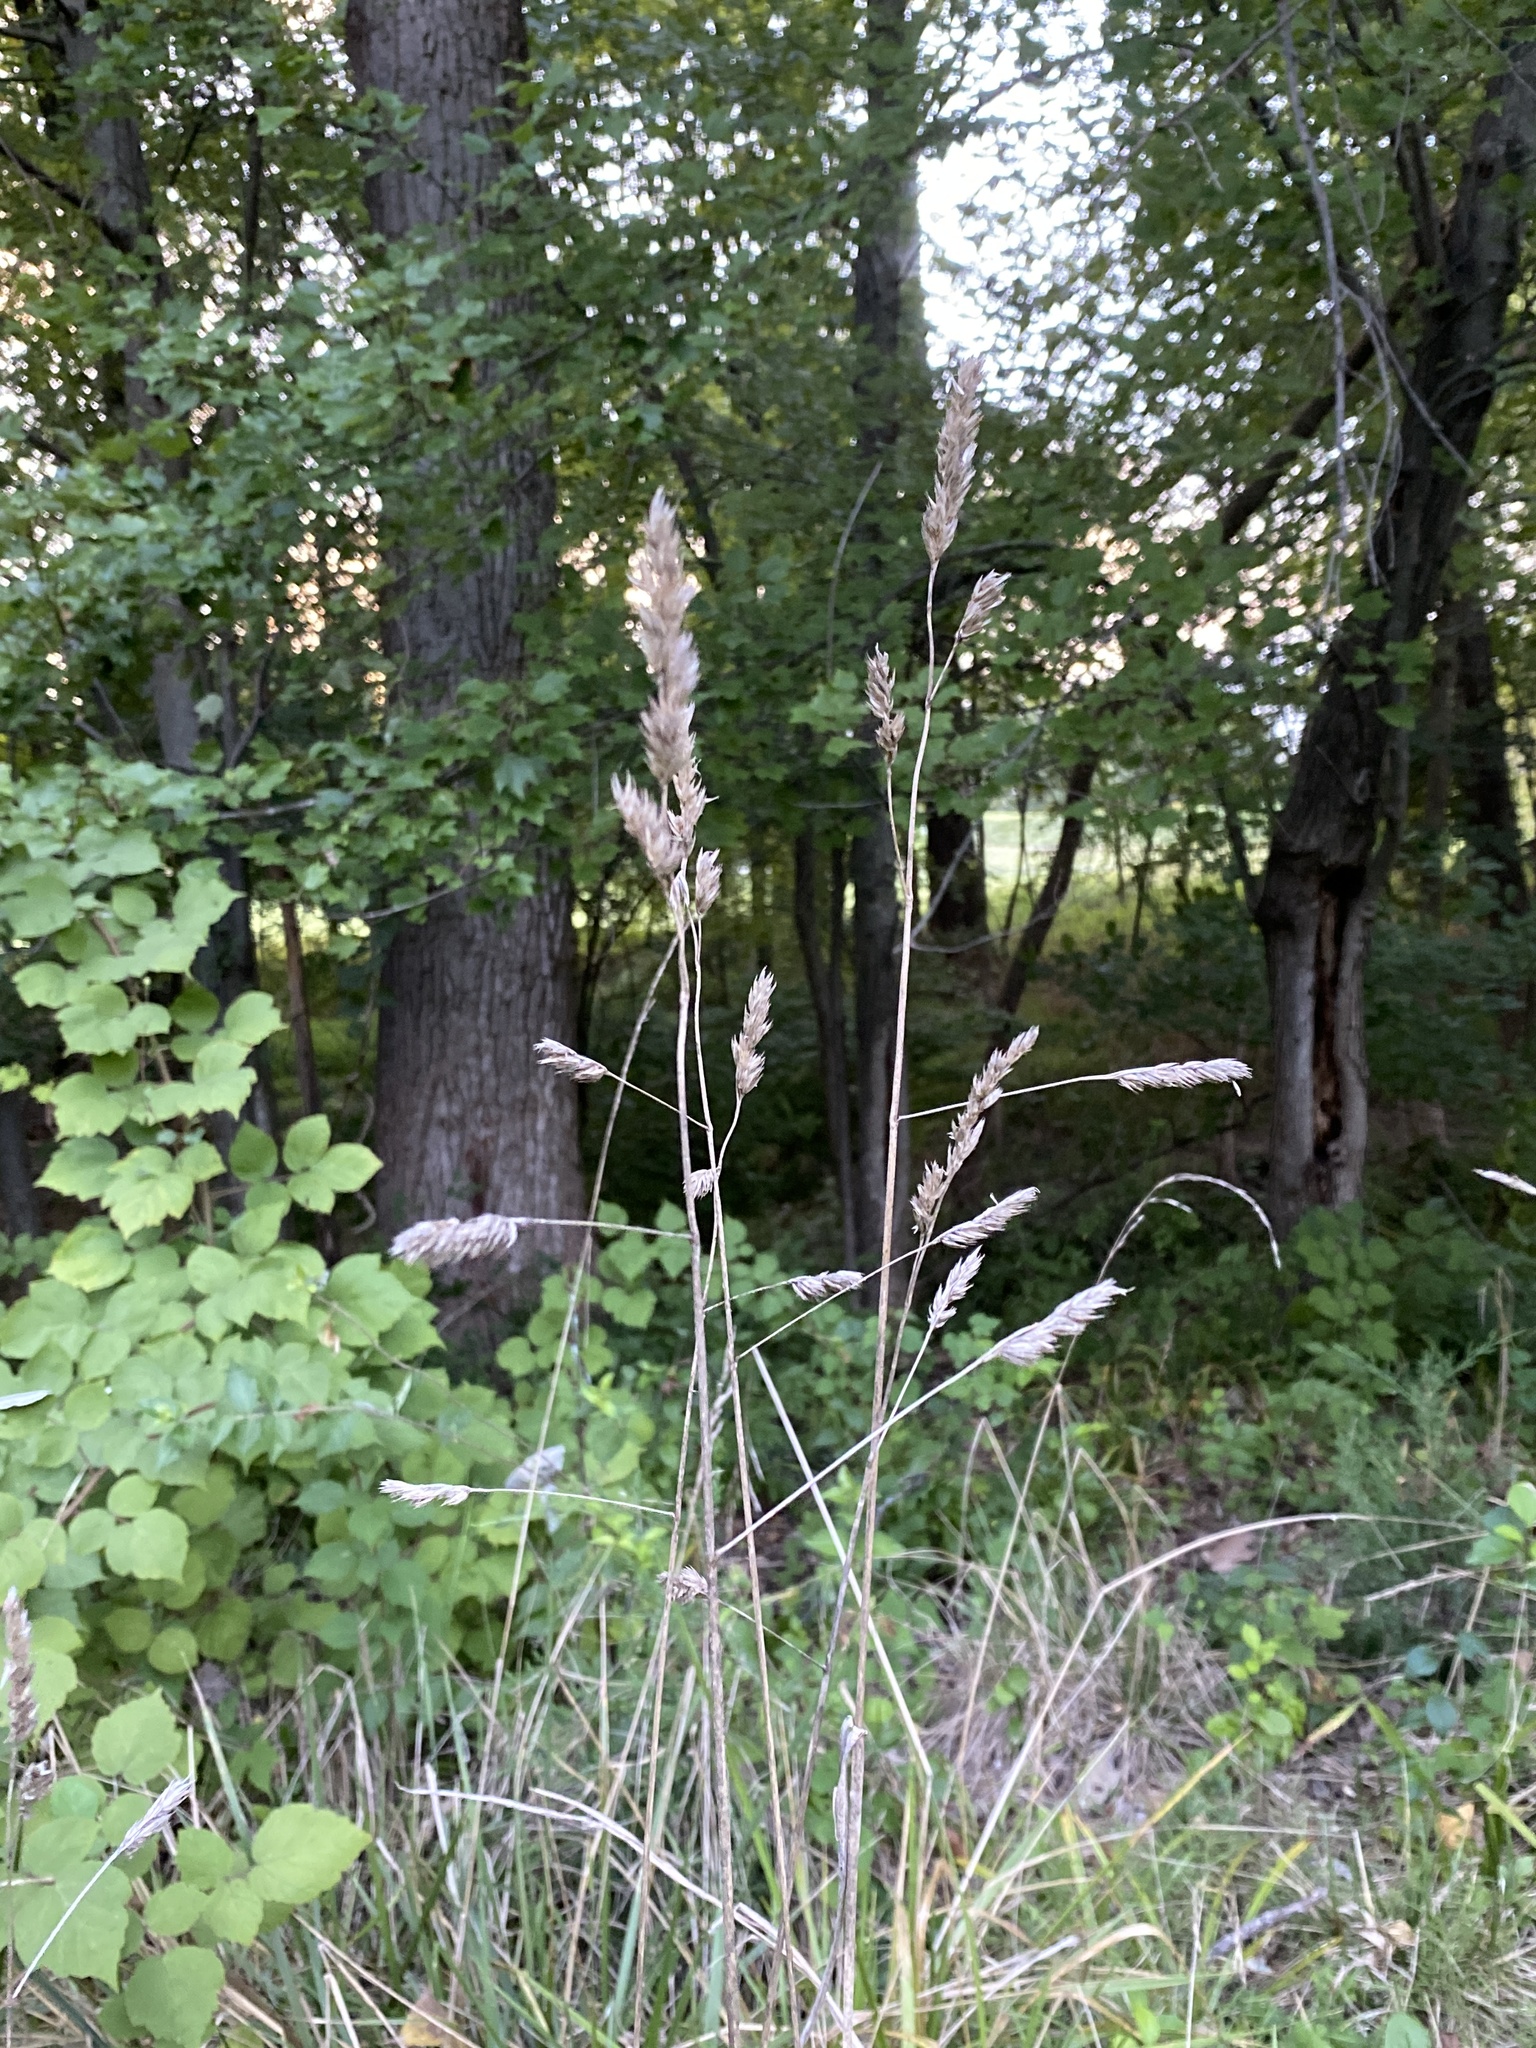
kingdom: Plantae
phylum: Tracheophyta
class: Liliopsida
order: Poales
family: Poaceae
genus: Dactylis
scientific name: Dactylis glomerata
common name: Orchardgrass
